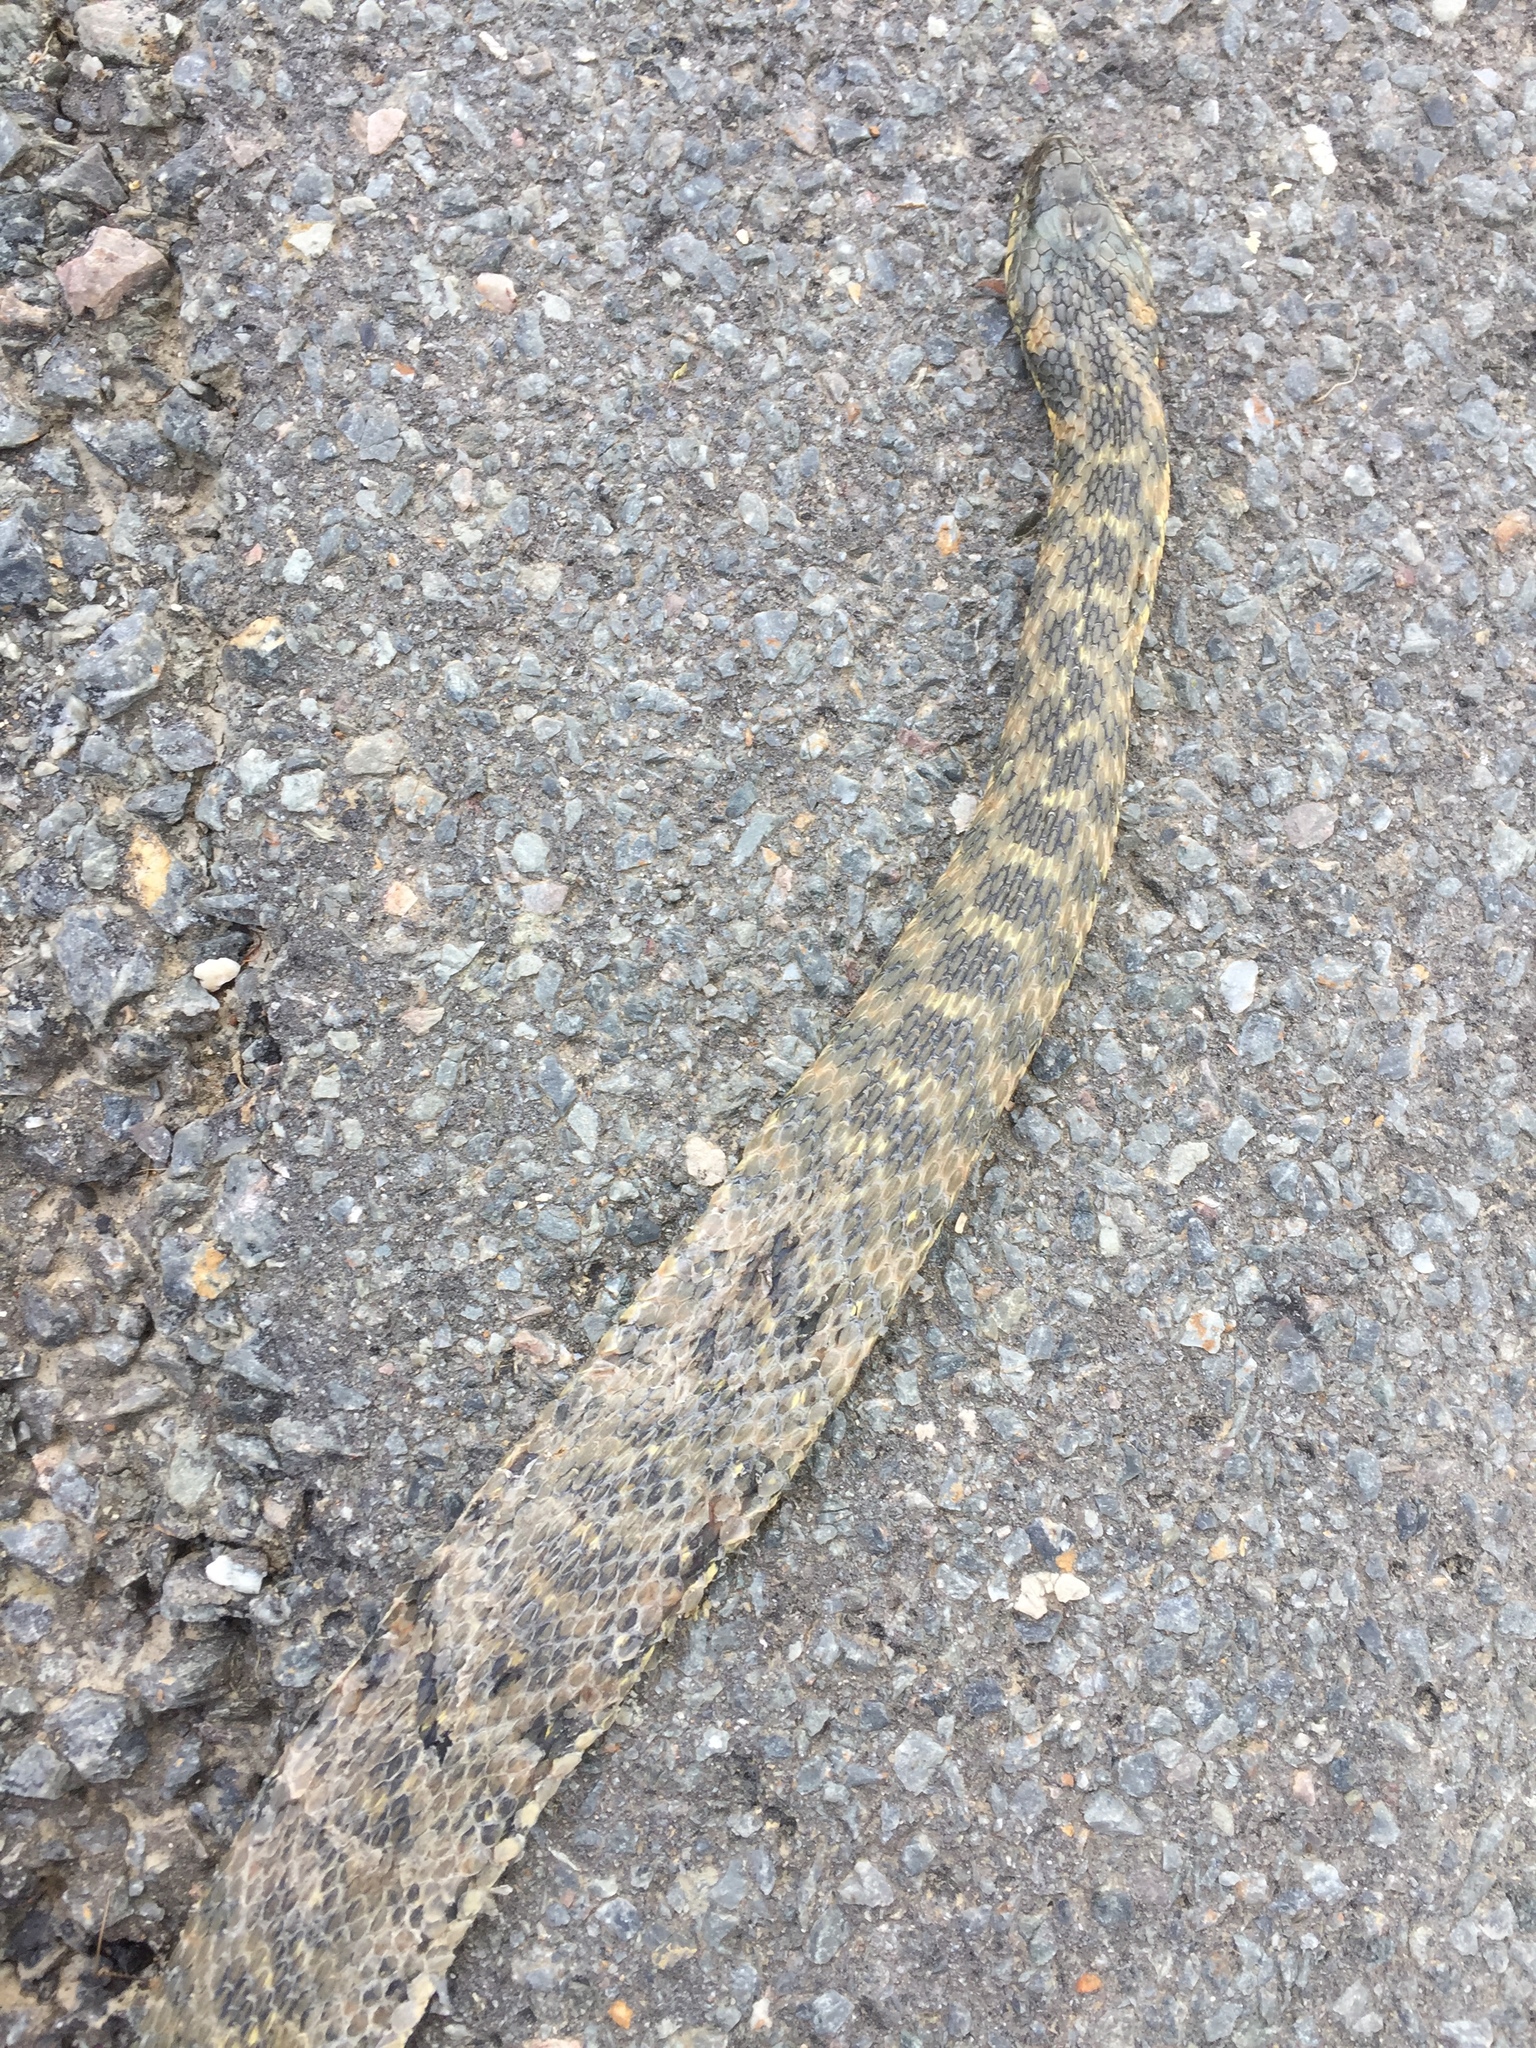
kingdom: Animalia
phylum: Chordata
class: Squamata
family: Colubridae
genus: Natrix
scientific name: Natrix maura
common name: Viperine water snake
